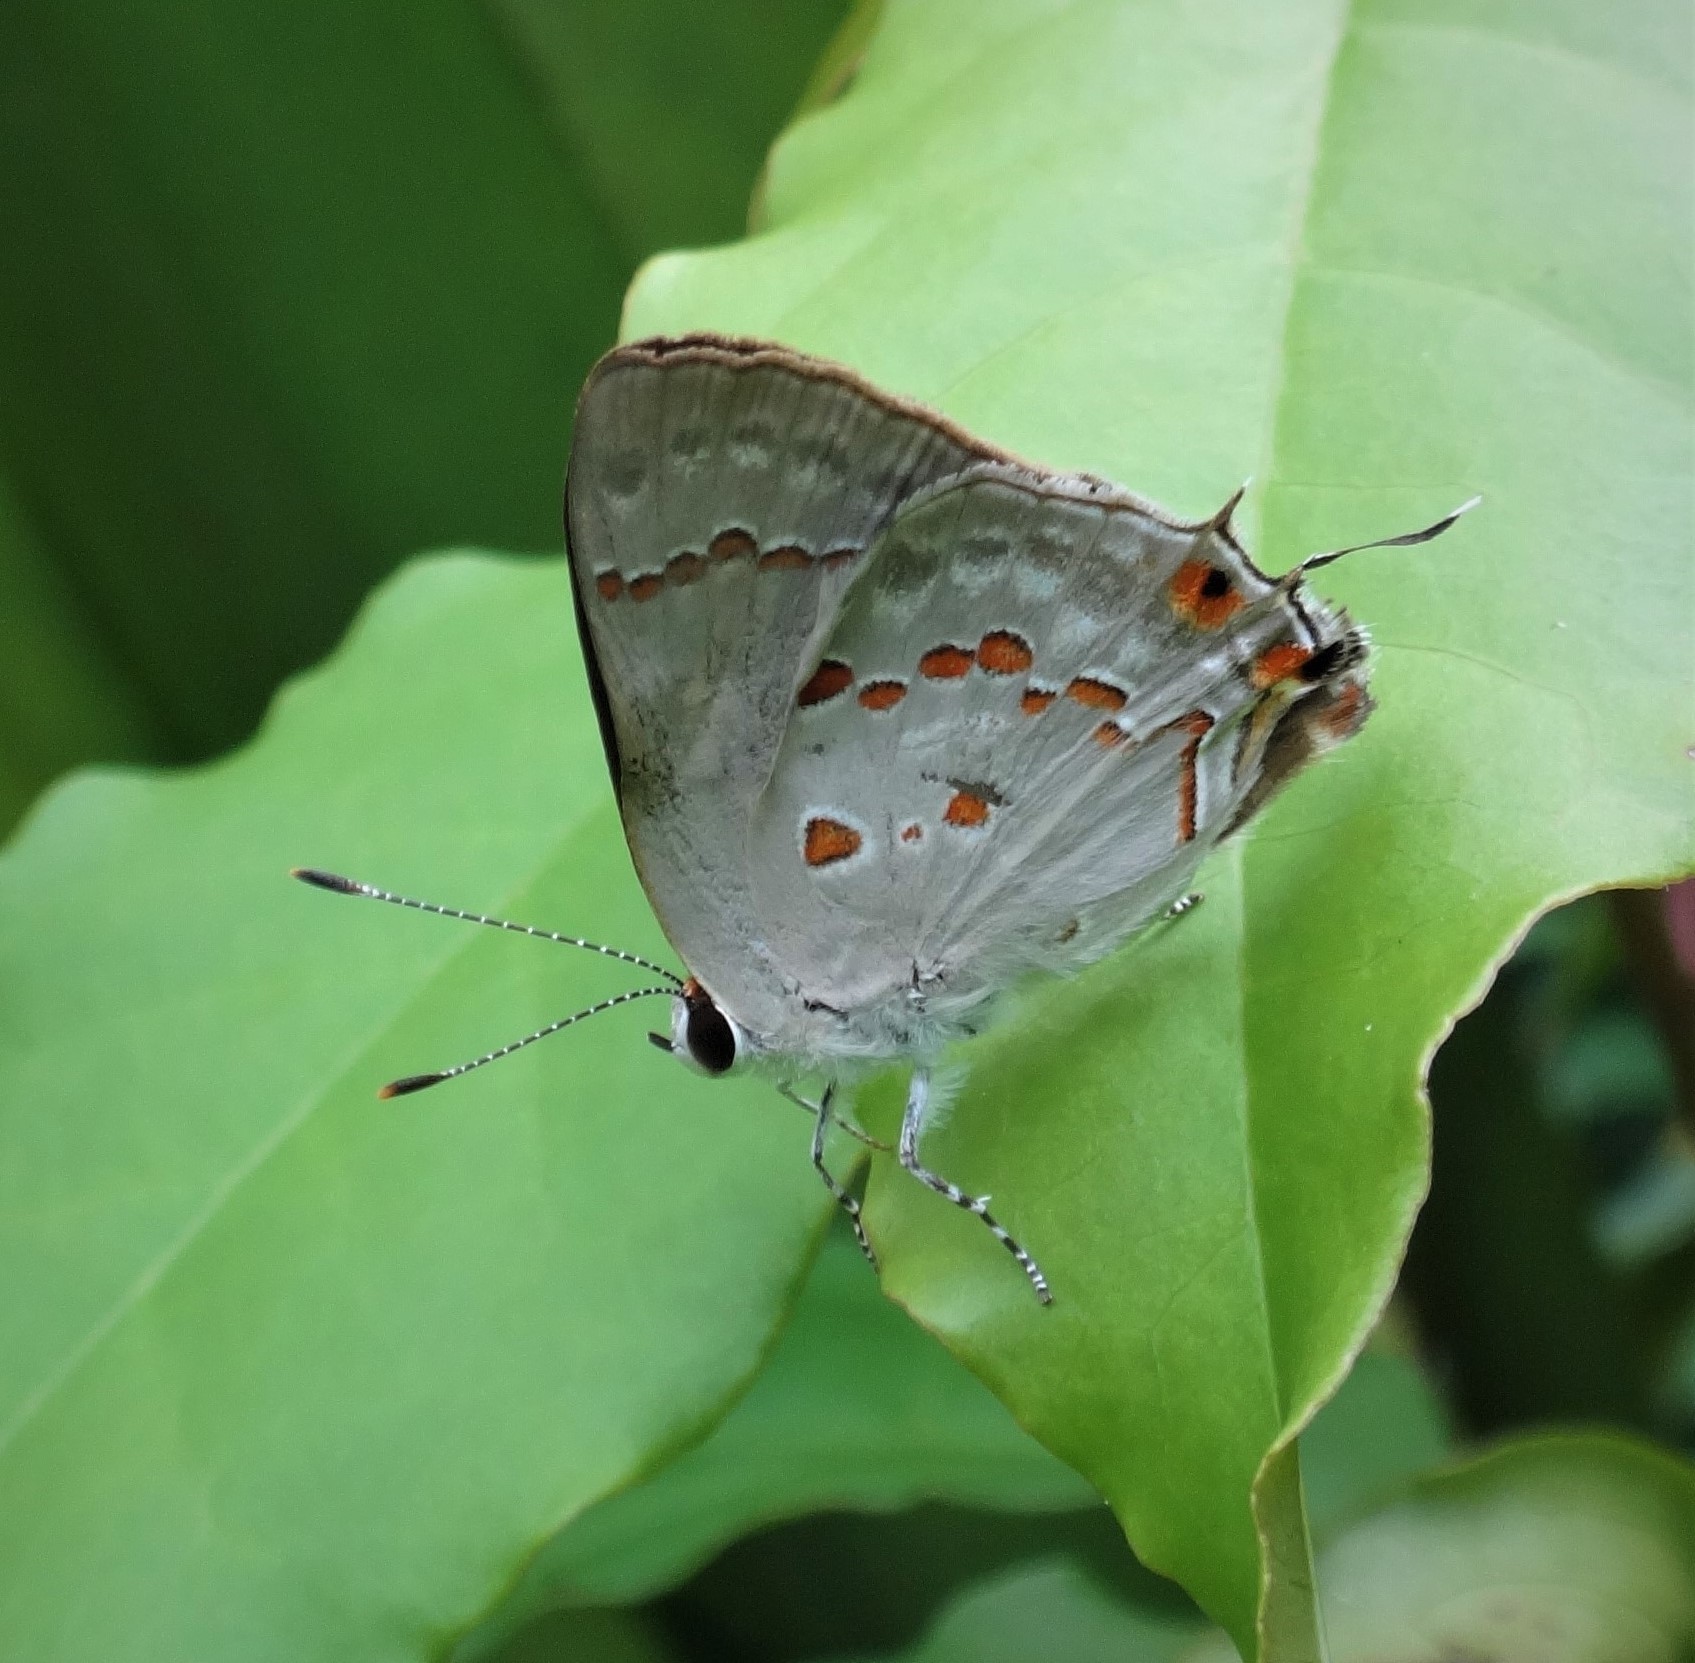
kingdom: Animalia
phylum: Arthropoda
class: Insecta
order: Lepidoptera
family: Lycaenidae
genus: Thecla
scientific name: Thecla ziba
